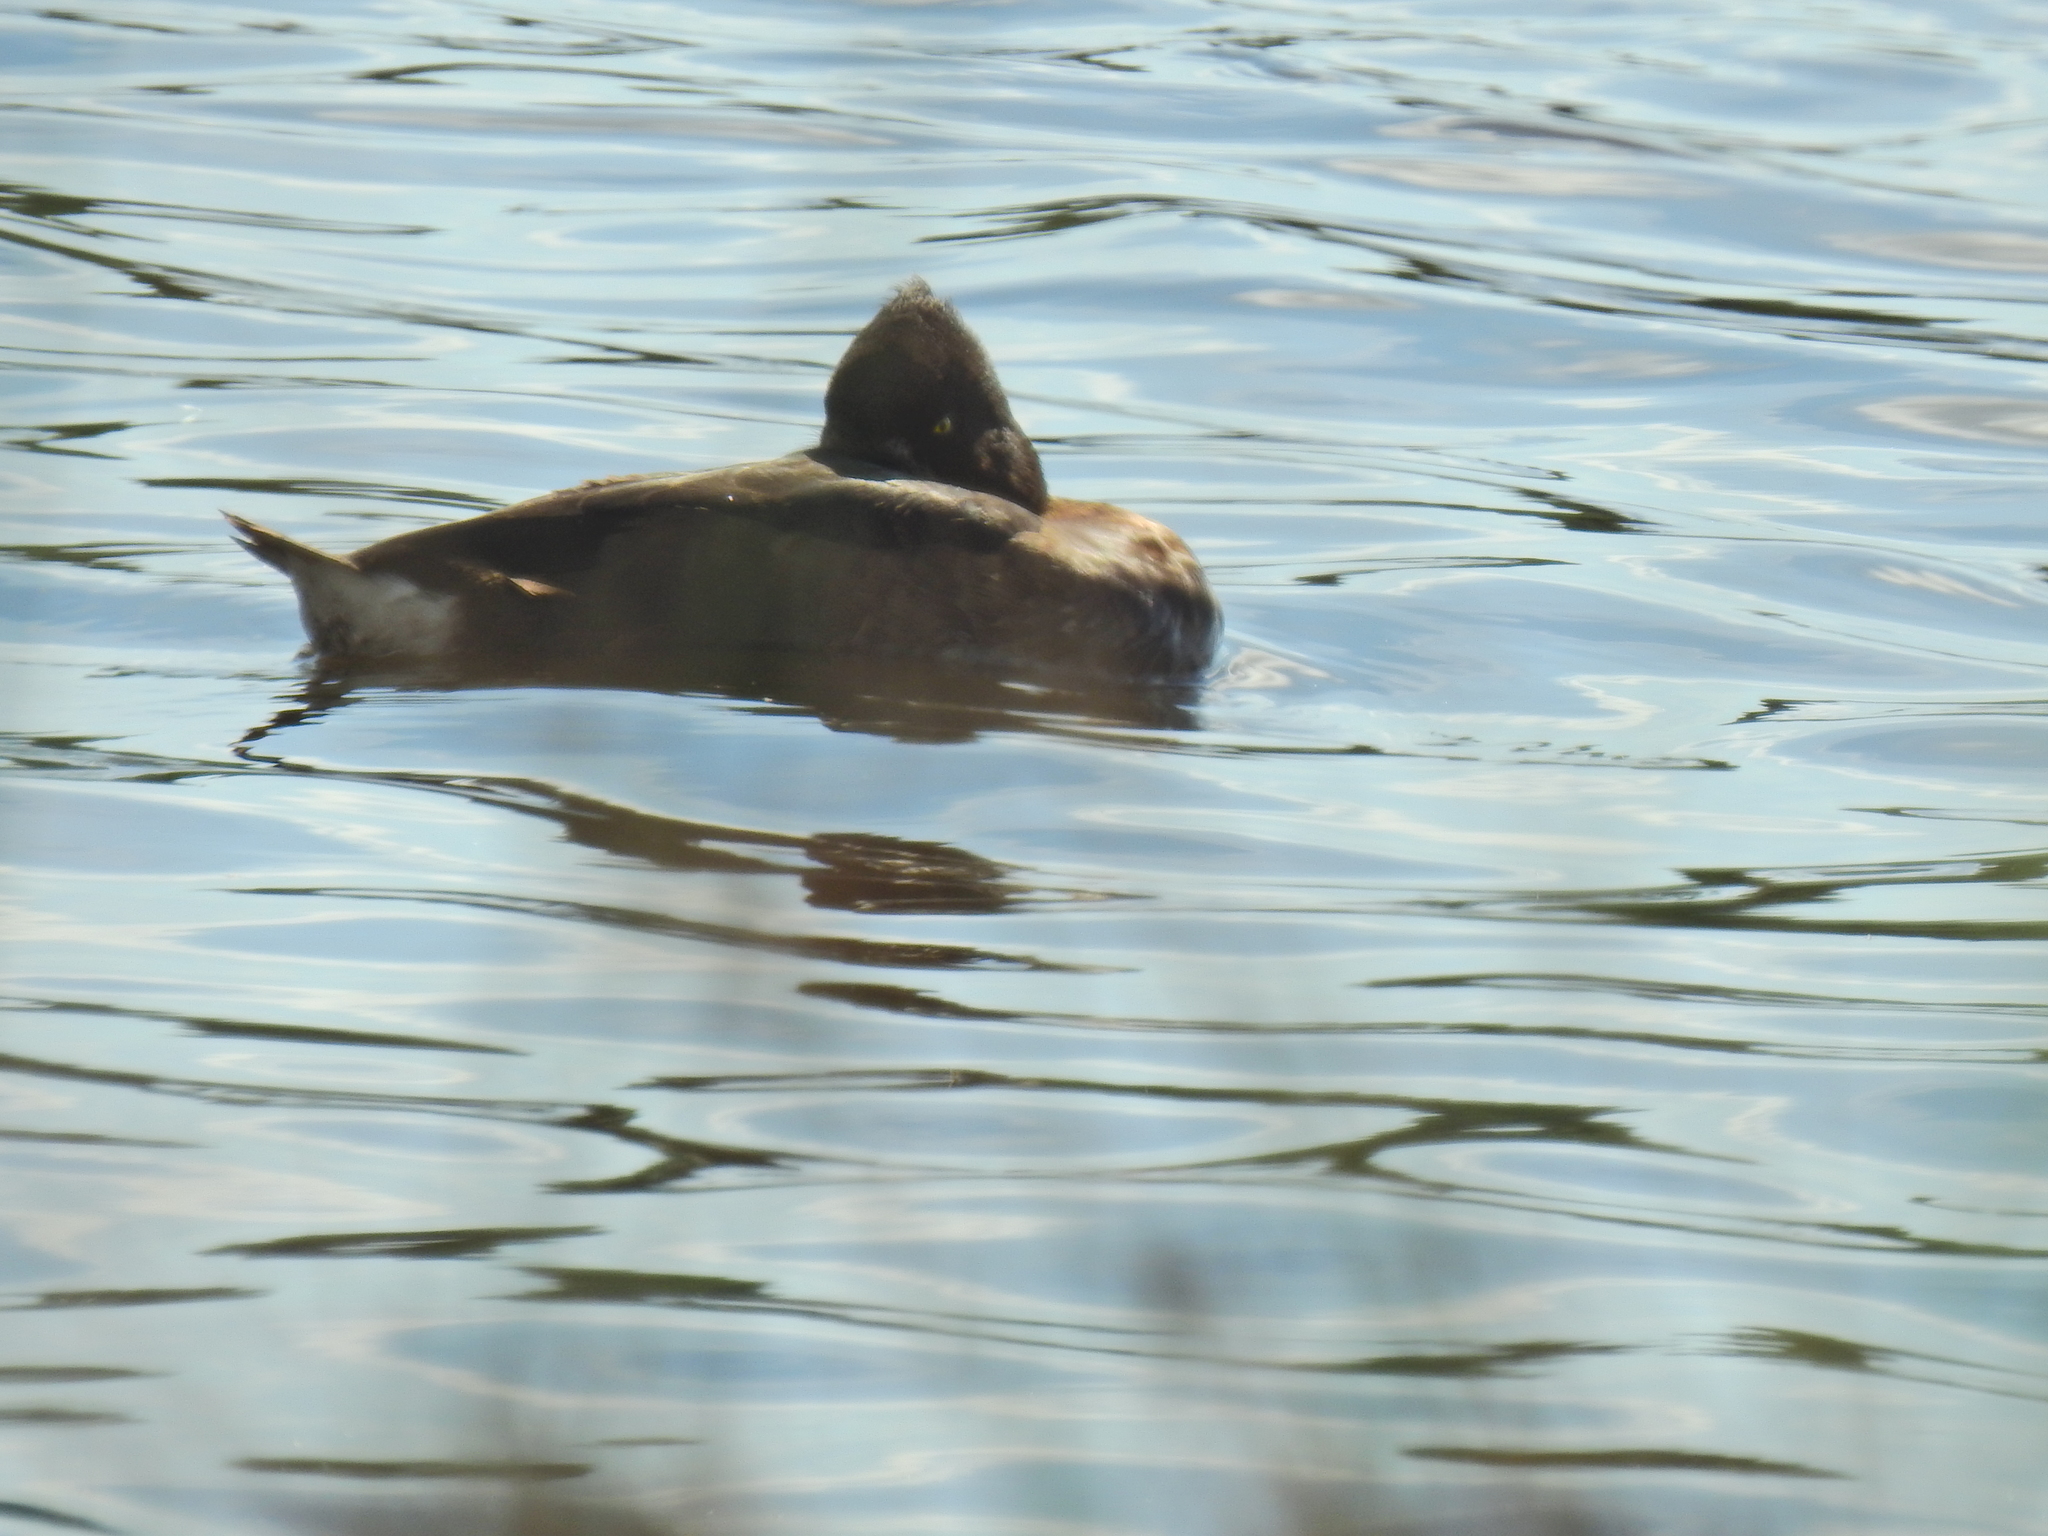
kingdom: Animalia
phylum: Chordata
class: Aves
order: Anseriformes
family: Anatidae
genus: Aythya
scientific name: Aythya fuligula
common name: Tufted duck
